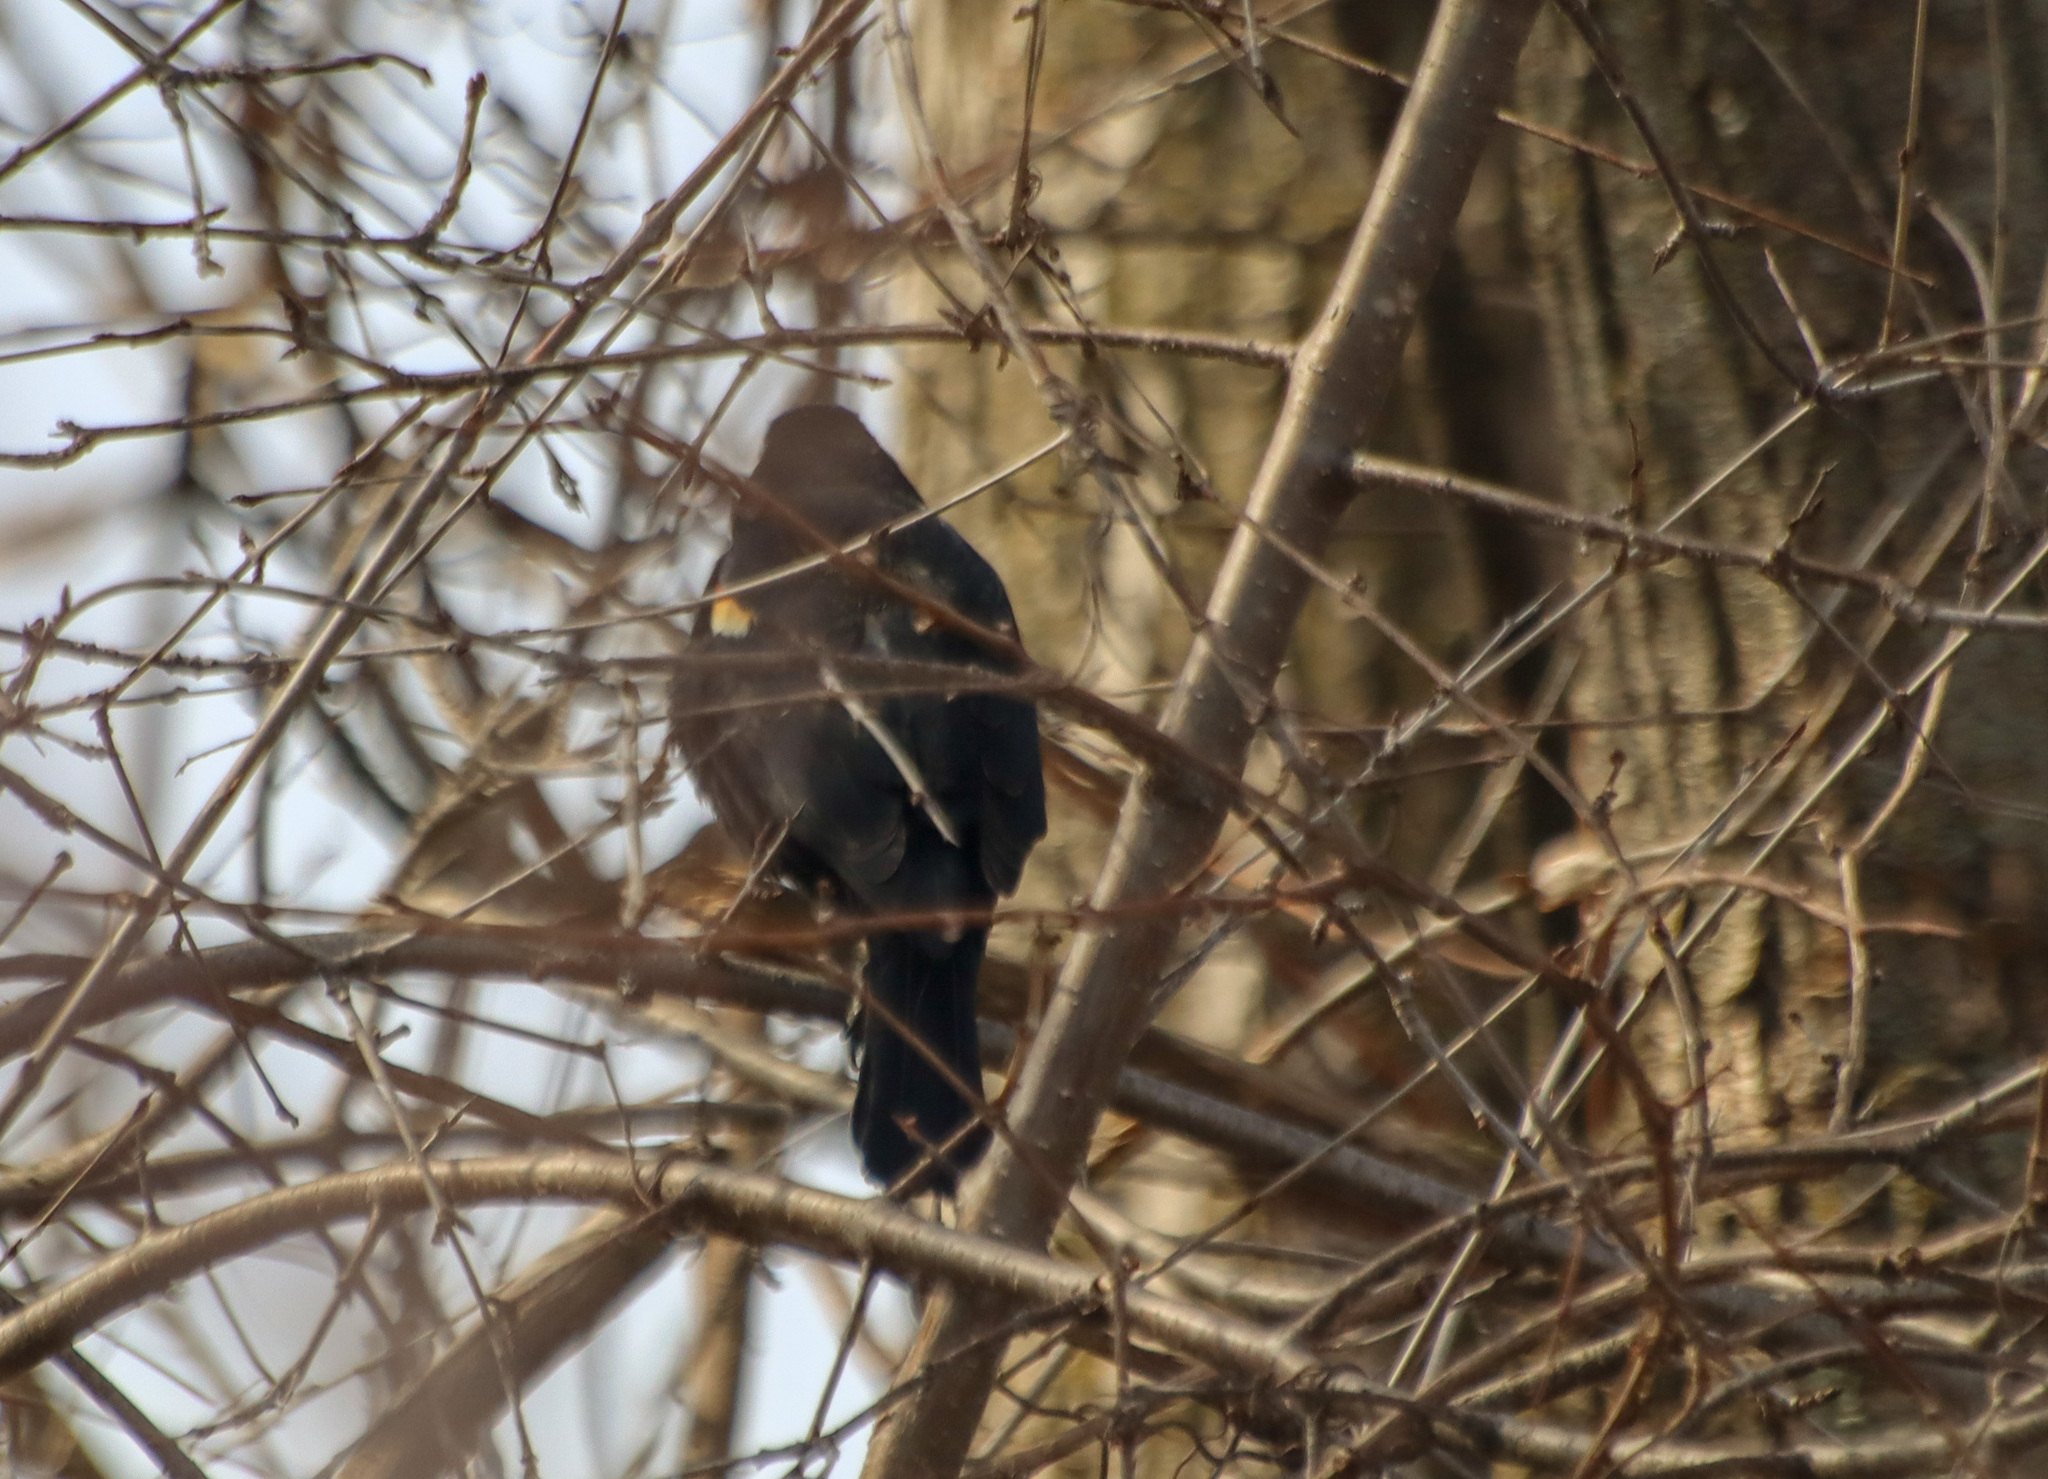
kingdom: Animalia
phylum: Chordata
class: Aves
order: Passeriformes
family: Icteridae
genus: Agelaius
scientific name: Agelaius phoeniceus
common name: Red-winged blackbird
